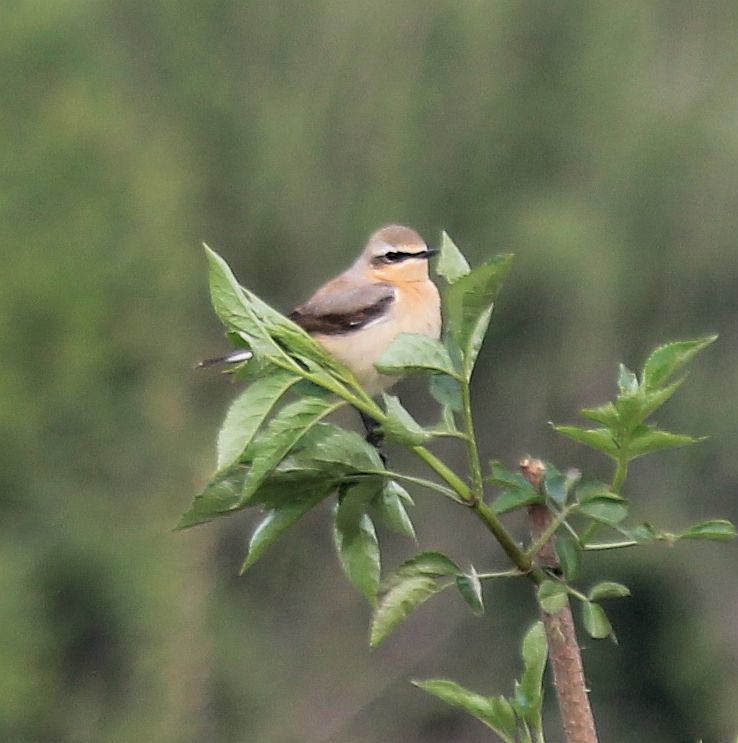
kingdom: Animalia
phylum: Chordata
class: Aves
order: Passeriformes
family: Muscicapidae
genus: Oenanthe
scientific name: Oenanthe oenanthe
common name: Northern wheatear
